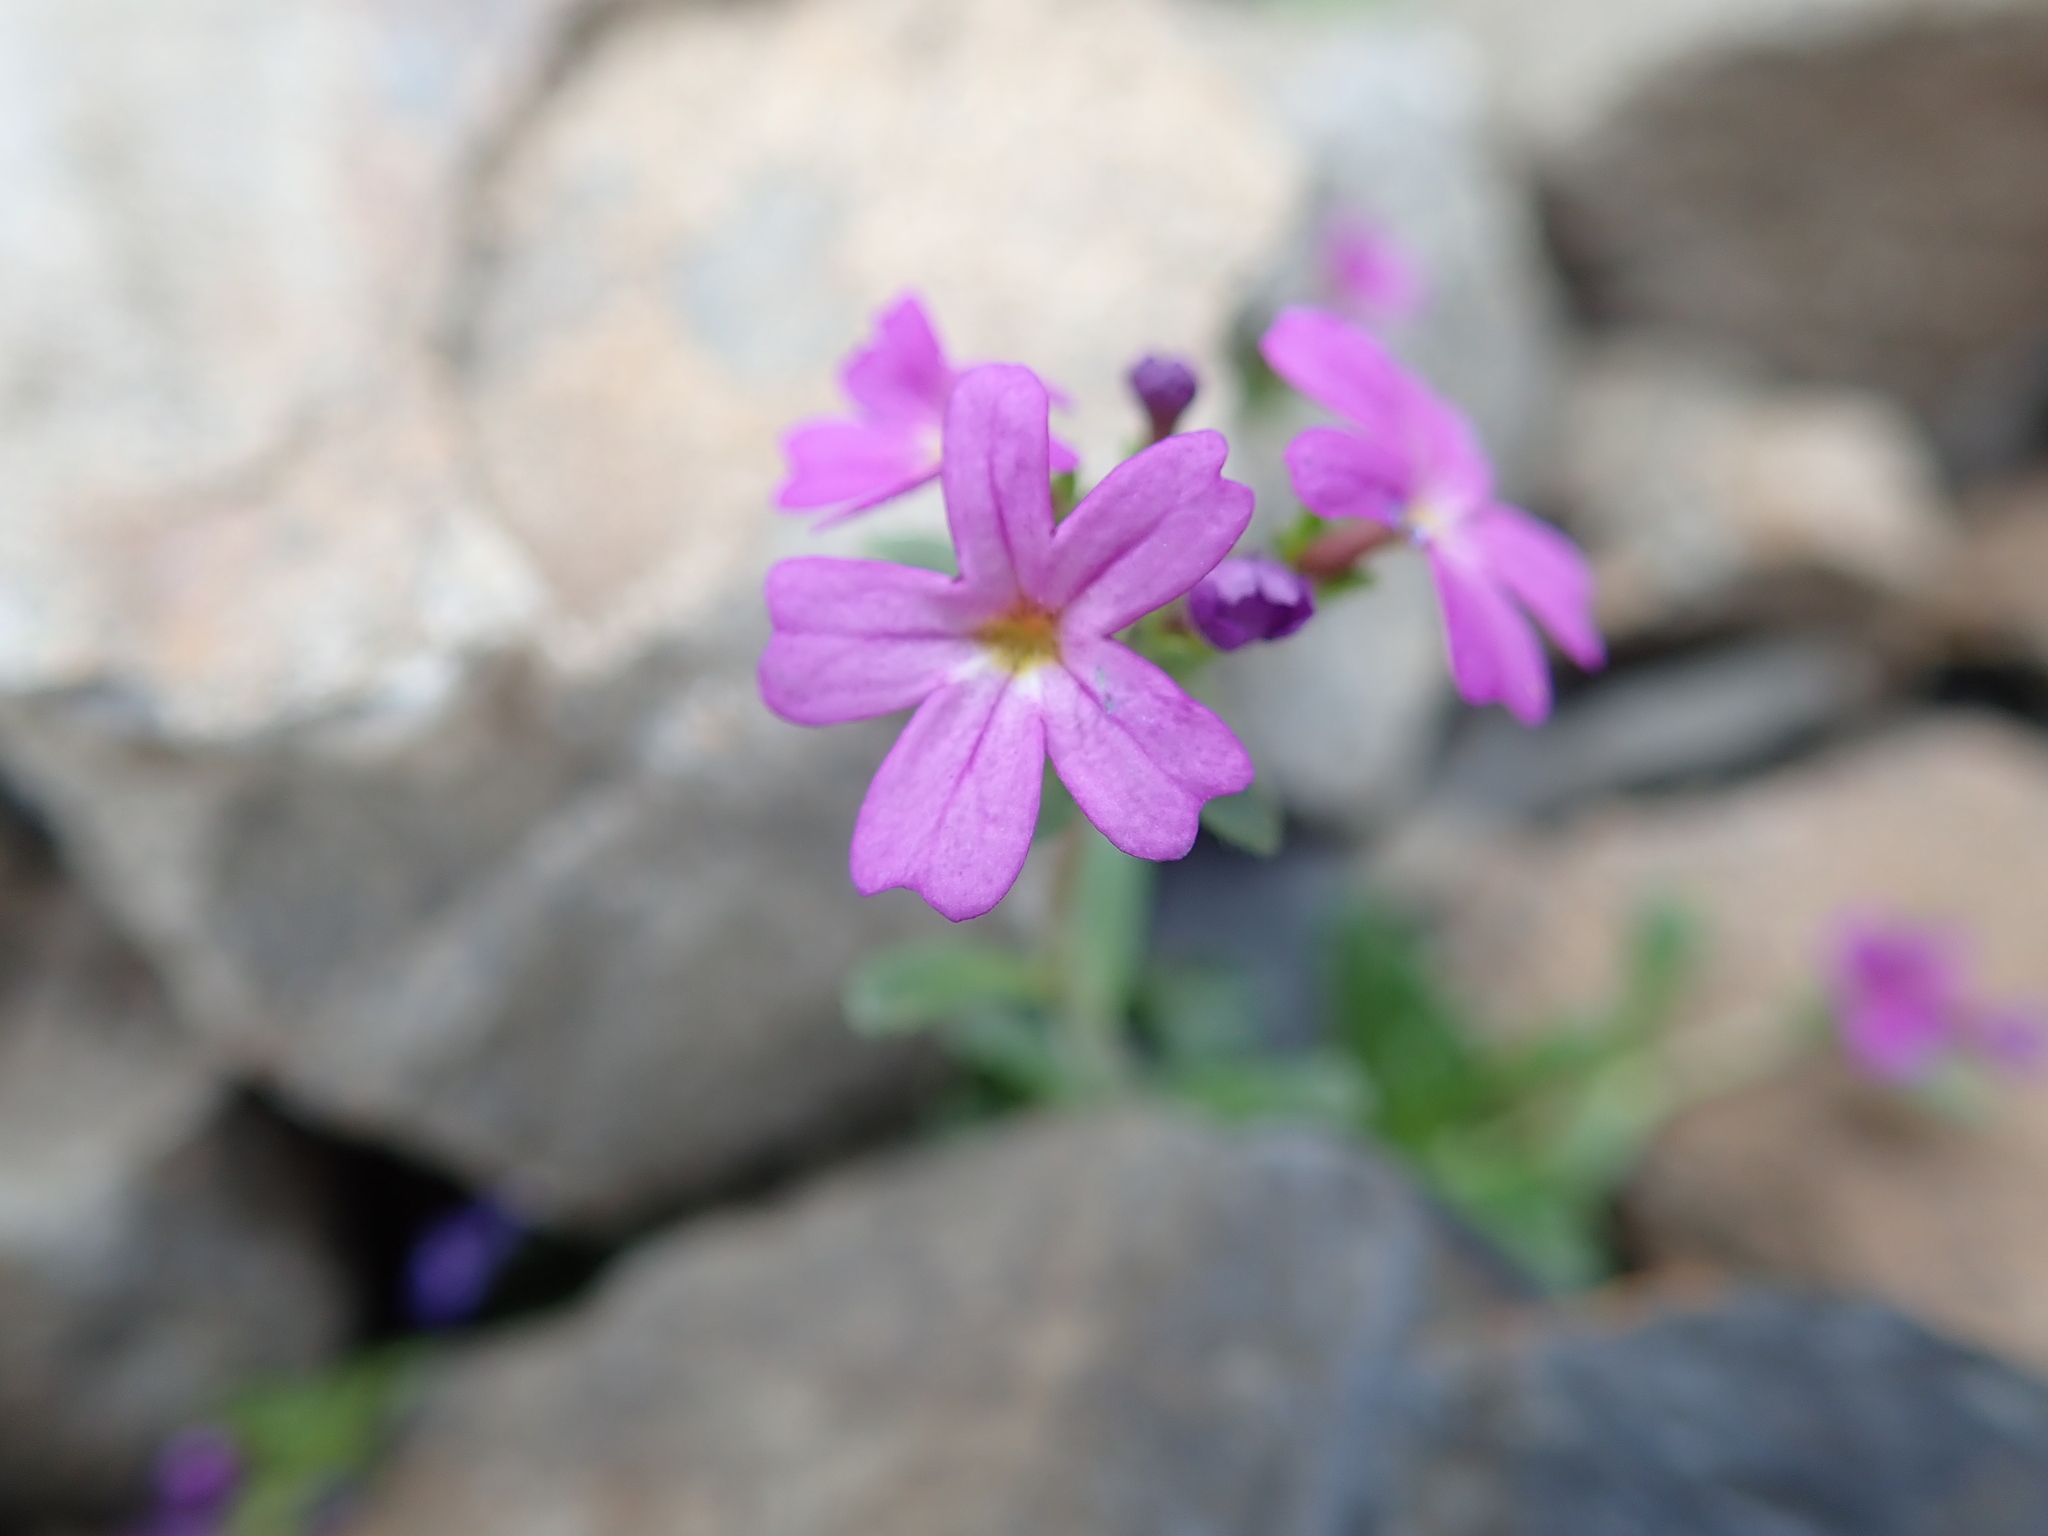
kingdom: Plantae
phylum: Tracheophyta
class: Magnoliopsida
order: Lamiales
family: Plantaginaceae
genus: Erinus
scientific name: Erinus alpinus
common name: Fairy foxglove
